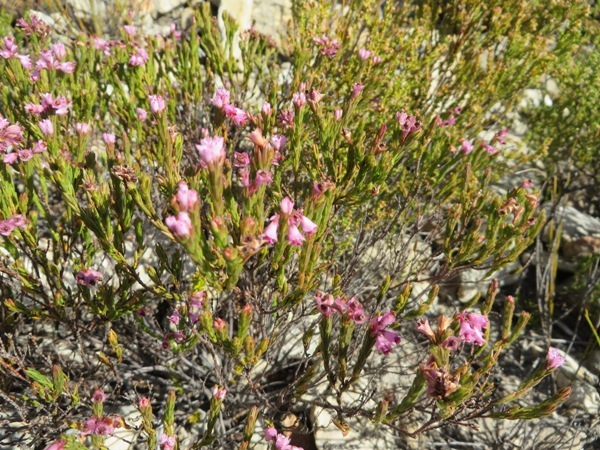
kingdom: Plantae
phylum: Tracheophyta
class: Magnoliopsida
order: Ericales
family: Ericaceae
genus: Erica
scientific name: Erica corifolia
